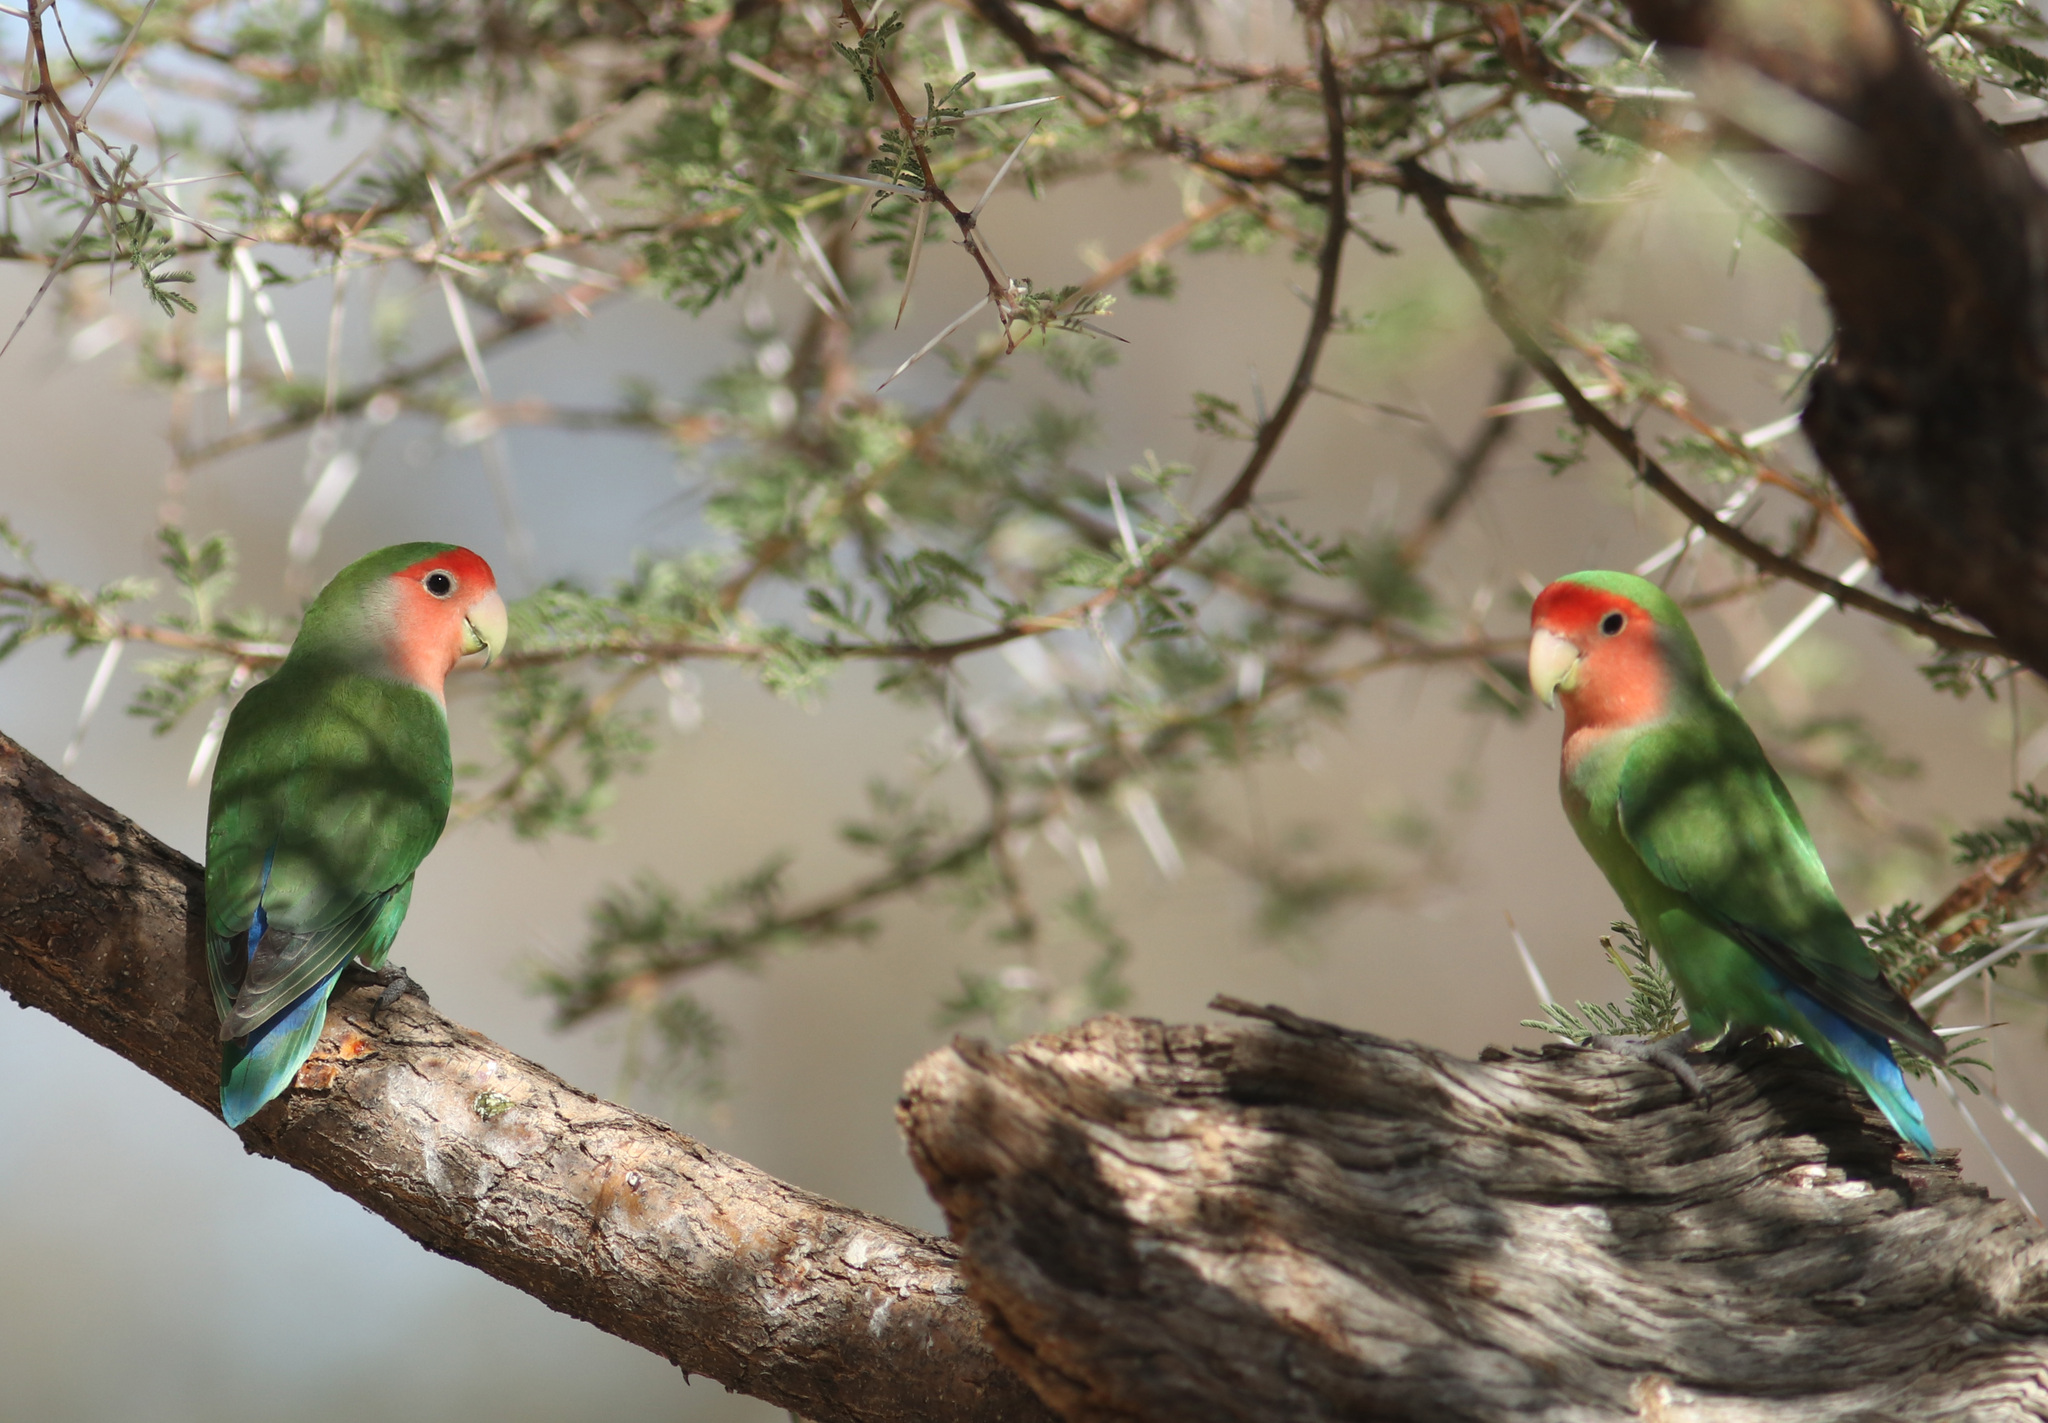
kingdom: Animalia
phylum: Chordata
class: Aves
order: Psittaciformes
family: Psittacidae
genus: Agapornis
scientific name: Agapornis roseicollis
